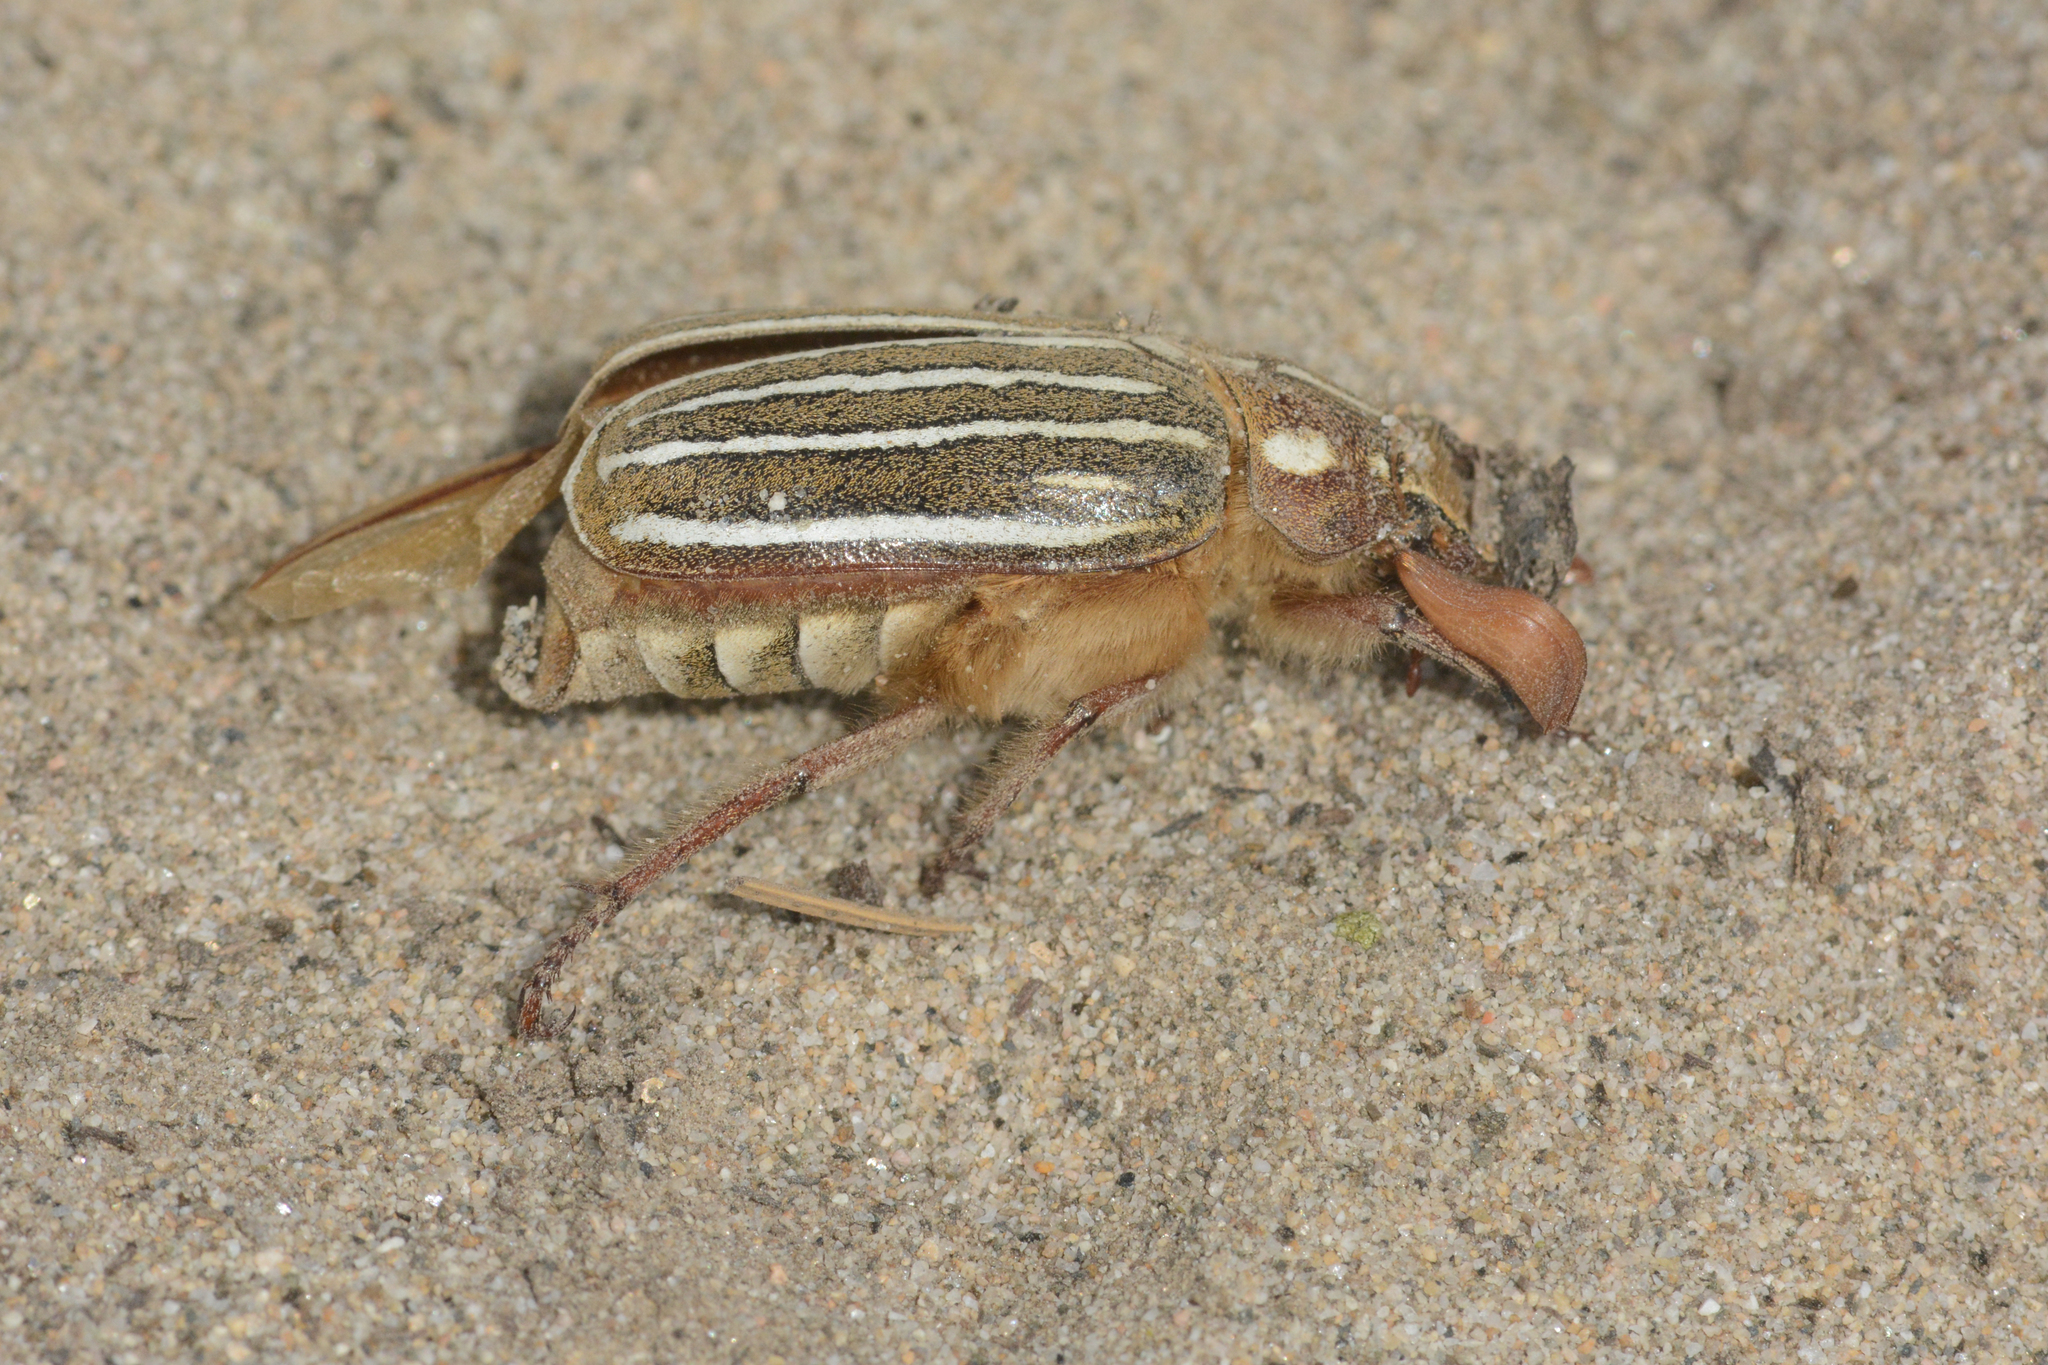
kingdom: Animalia
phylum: Arthropoda
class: Insecta
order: Coleoptera
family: Scarabaeidae
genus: Polyphylla
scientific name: Polyphylla crinita
